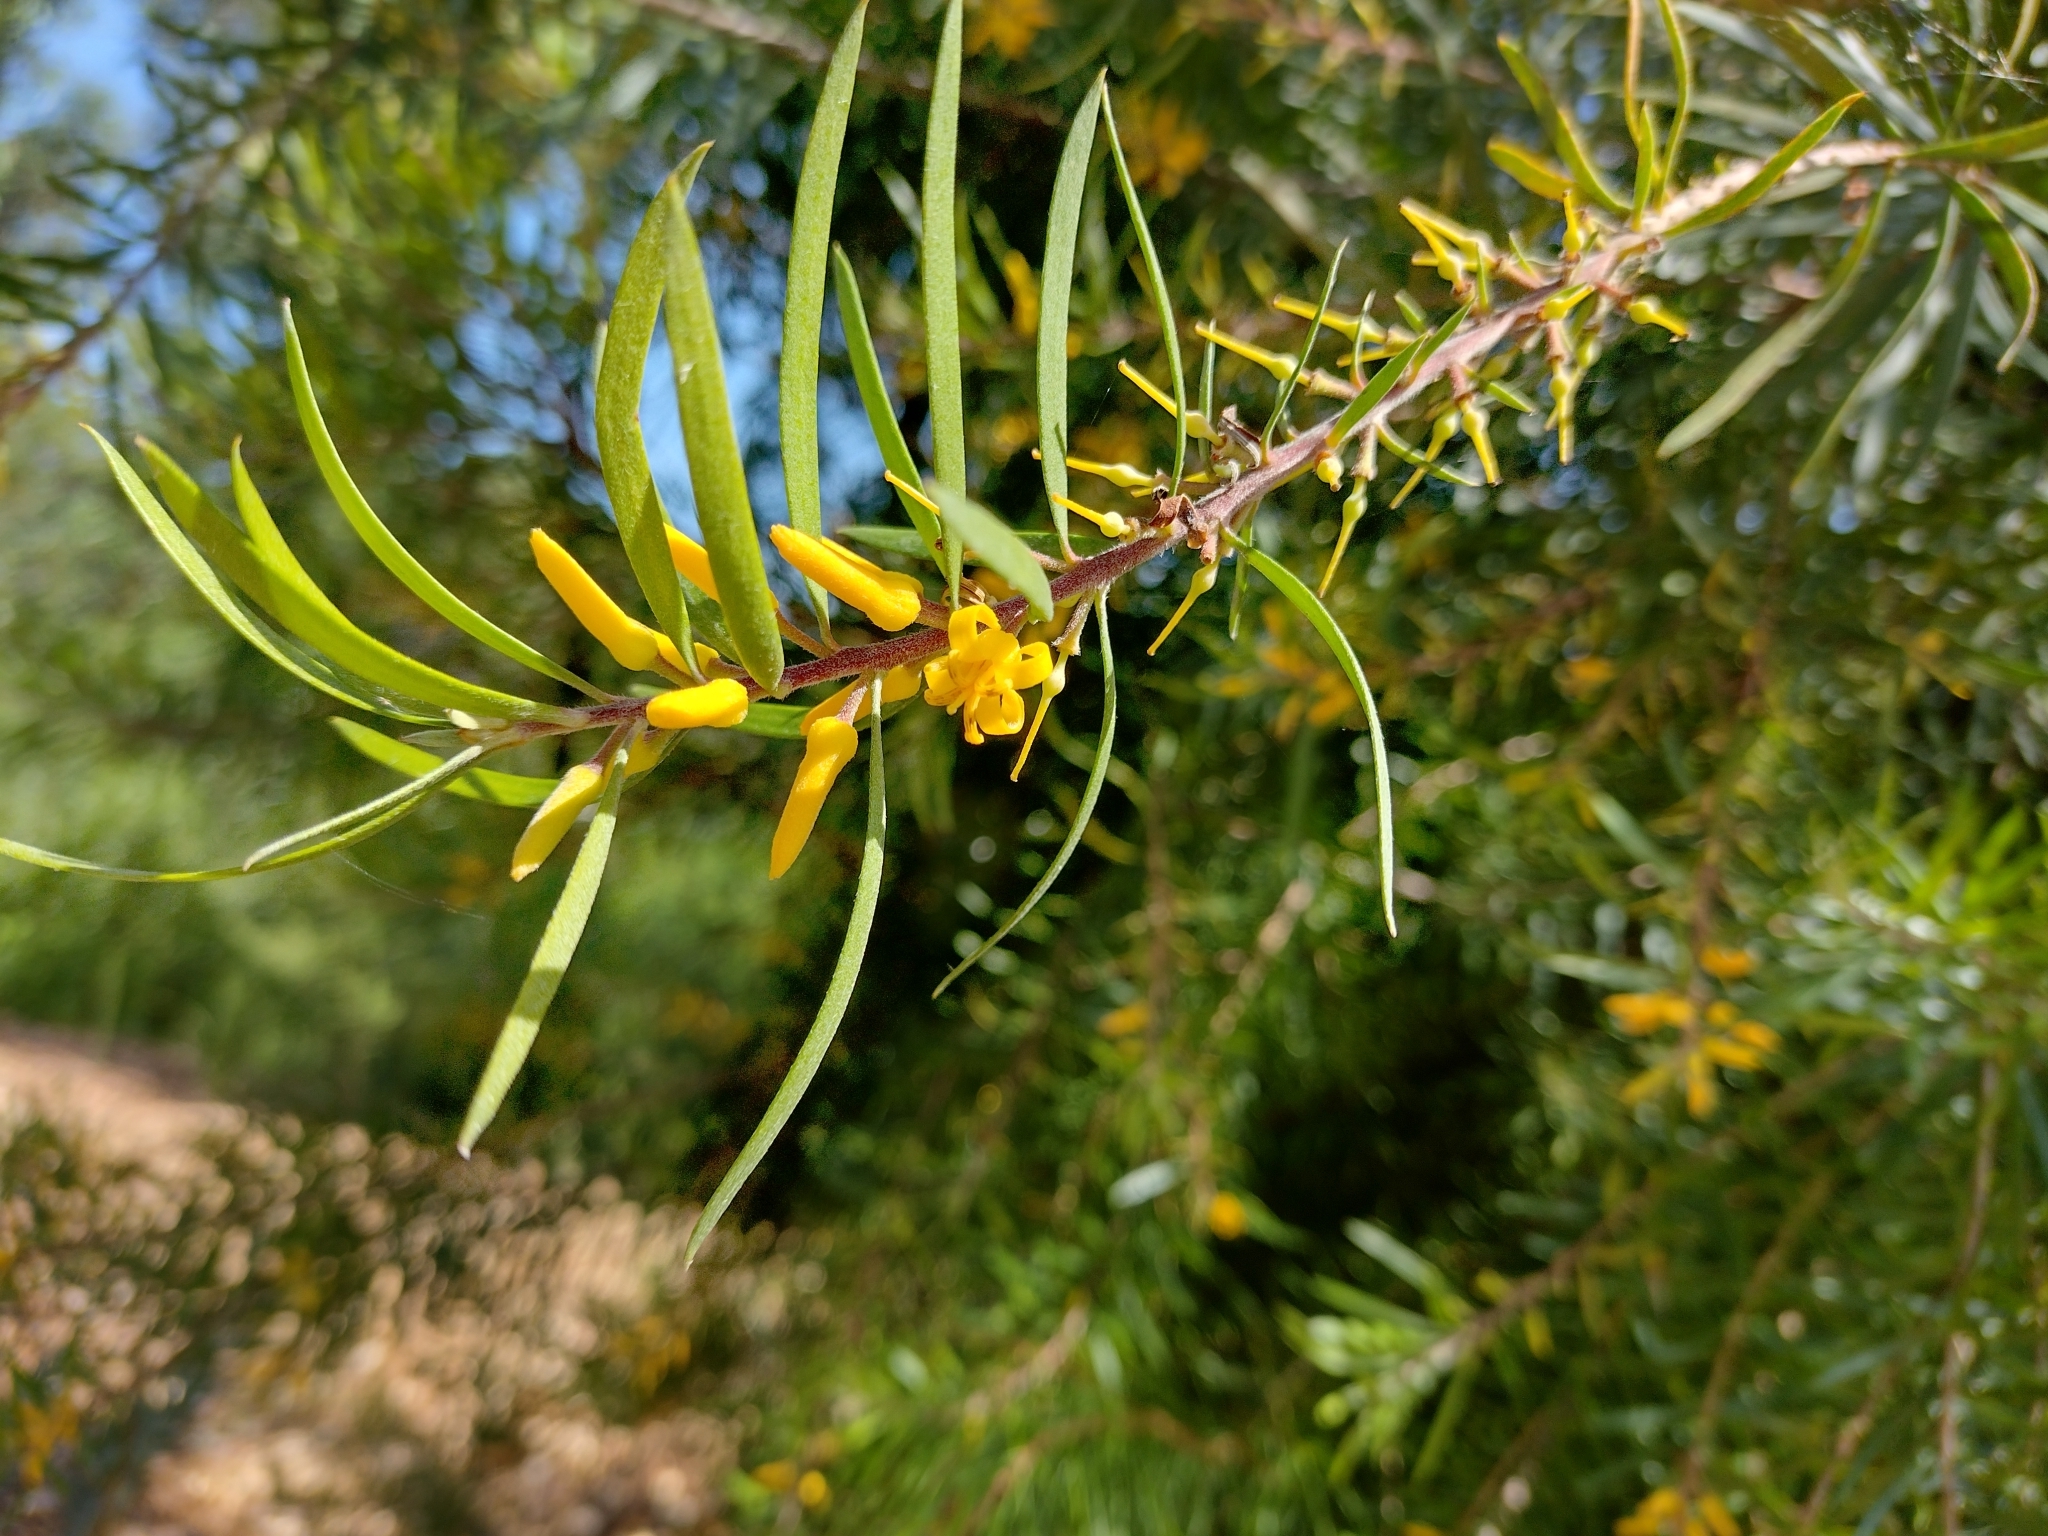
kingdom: Plantae
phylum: Tracheophyta
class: Magnoliopsida
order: Proteales
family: Proteaceae
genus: Persoonia
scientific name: Persoonia linearis
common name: Narrow-leaf geebung
